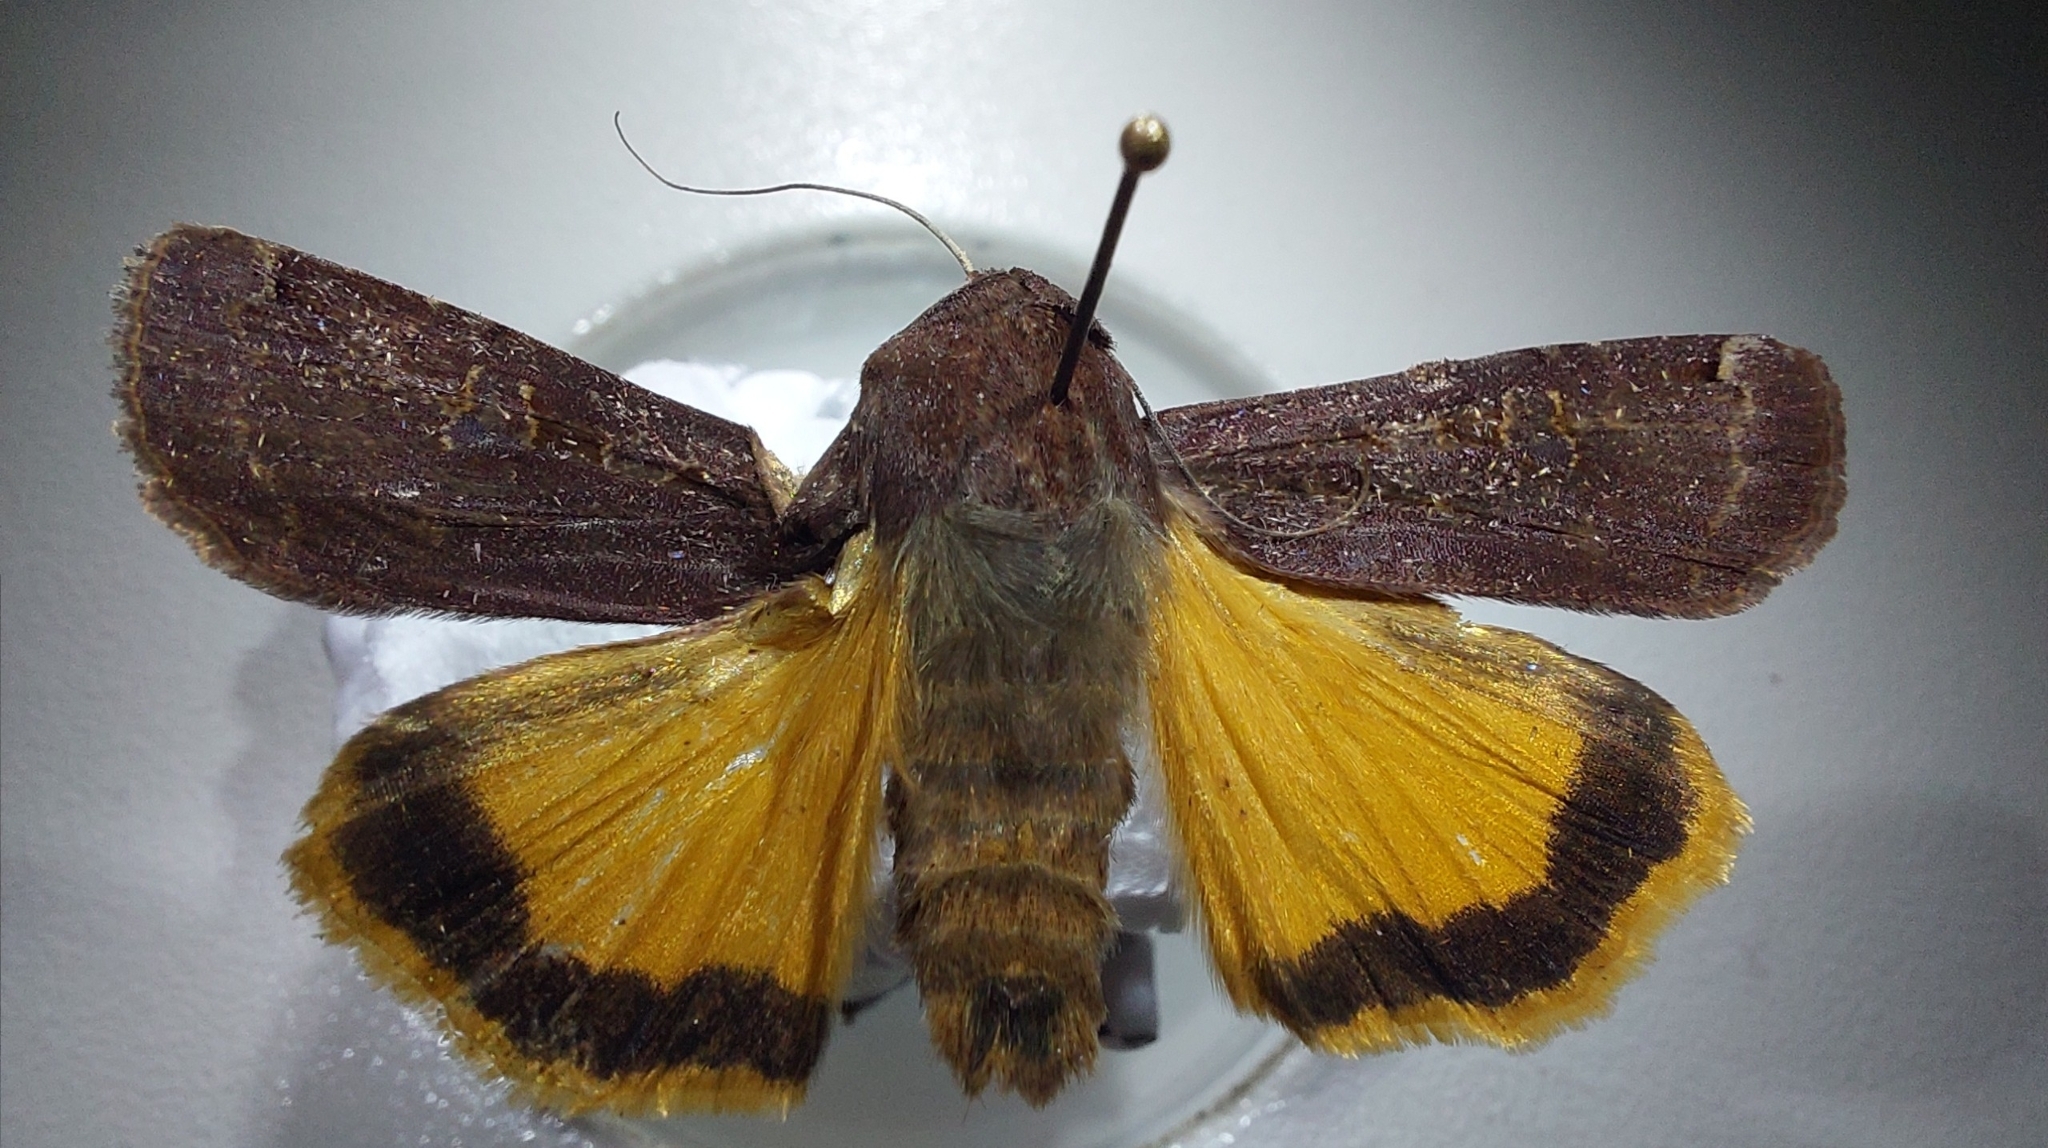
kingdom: Animalia
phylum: Arthropoda
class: Insecta
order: Lepidoptera
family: Noctuidae
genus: Noctua
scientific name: Noctua pronuba
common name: Large yellow underwing
